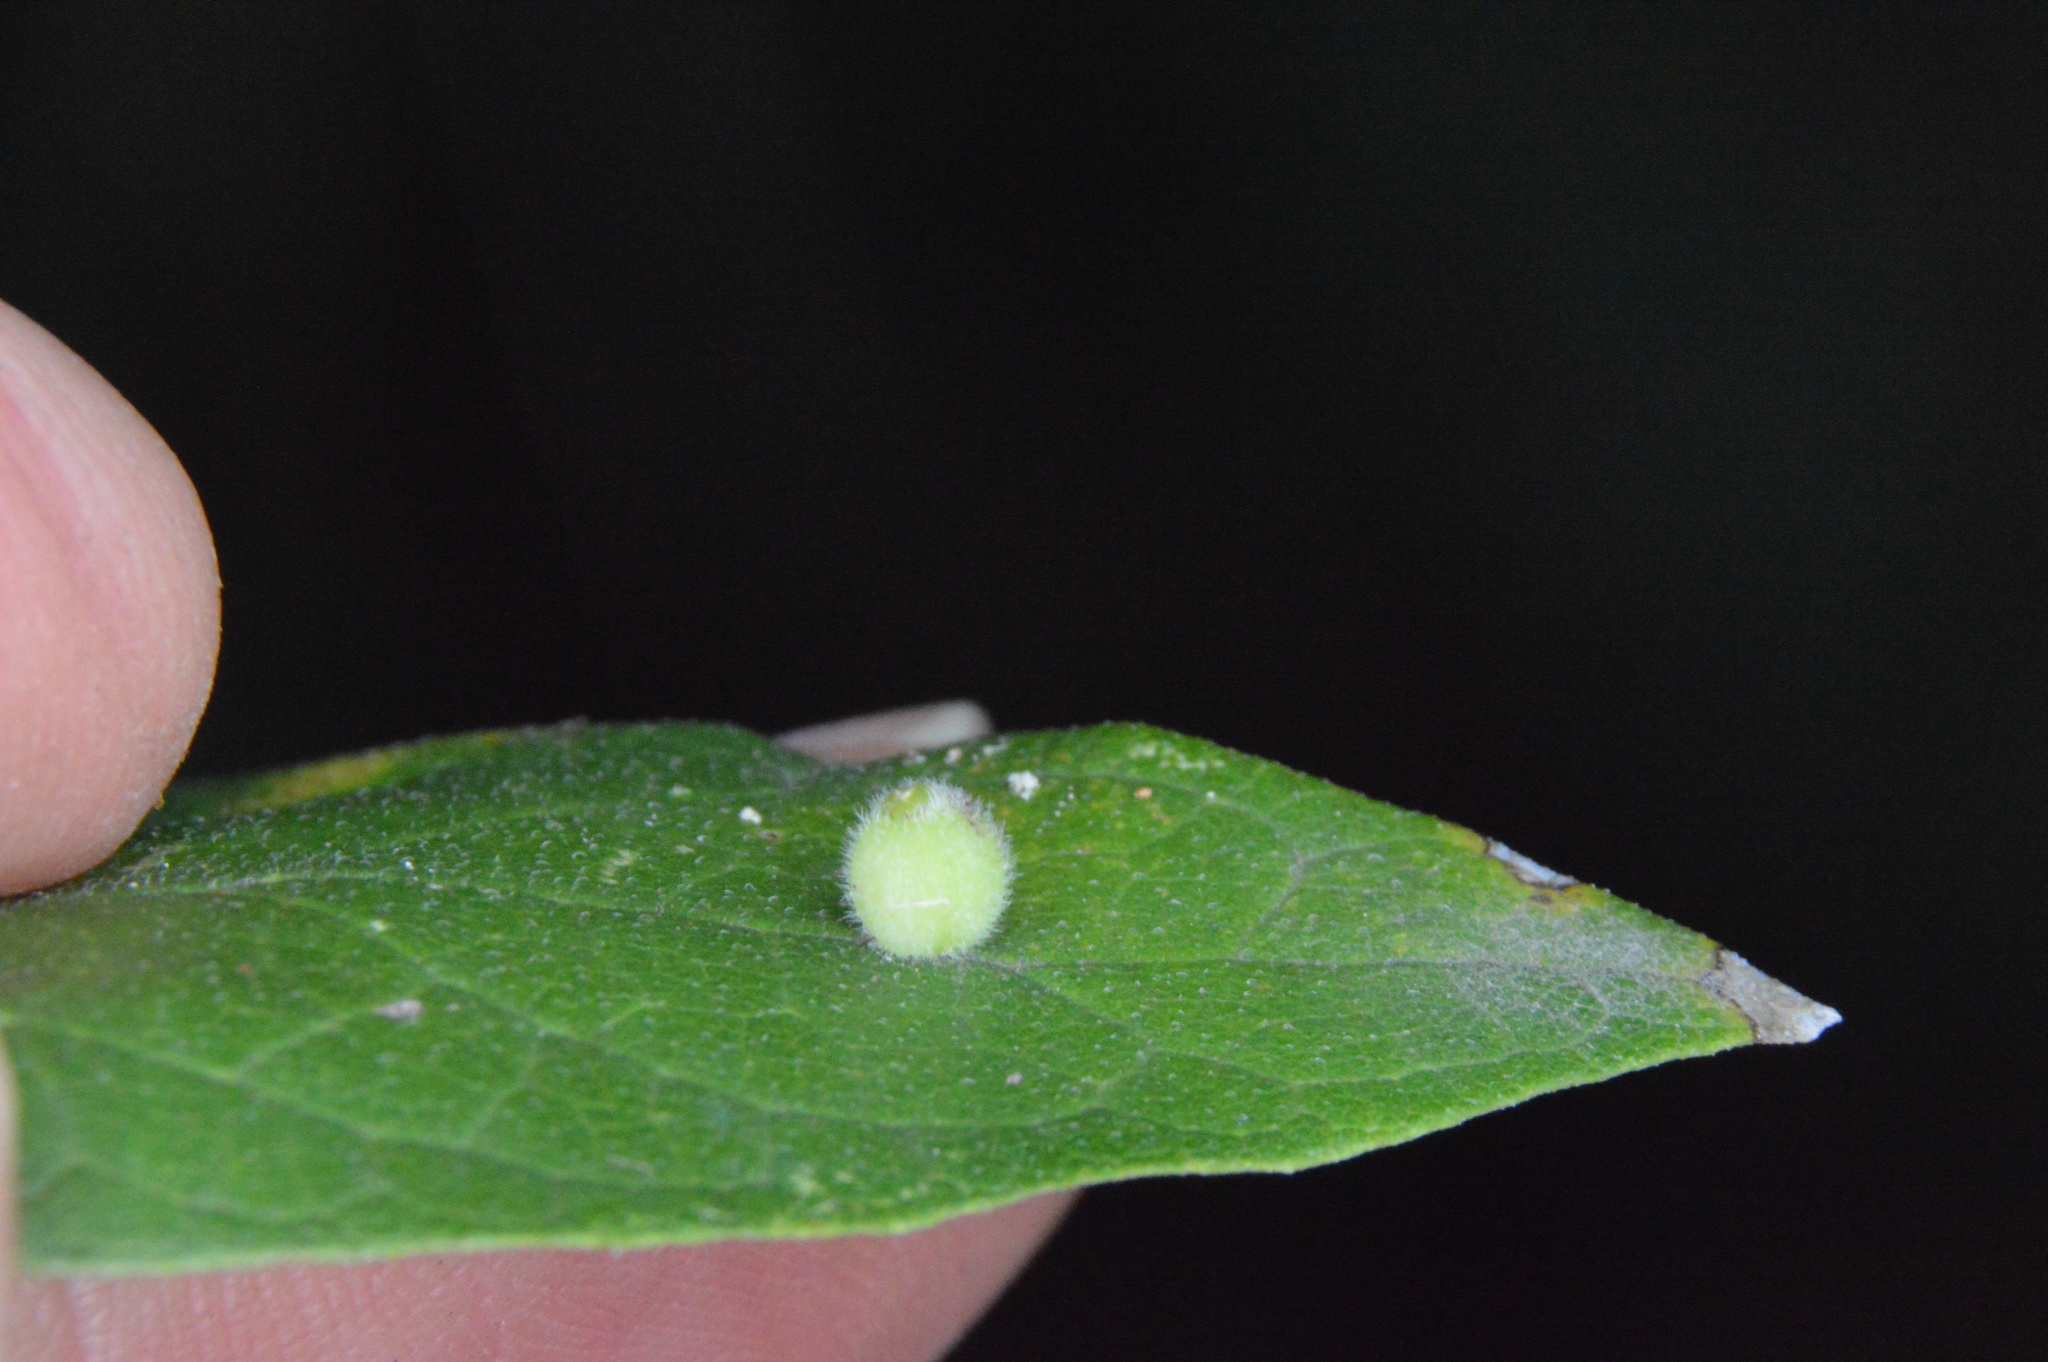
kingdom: Animalia
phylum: Arthropoda
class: Insecta
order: Diptera
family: Cecidomyiidae
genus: Celticecis
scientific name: Celticecis globosa
